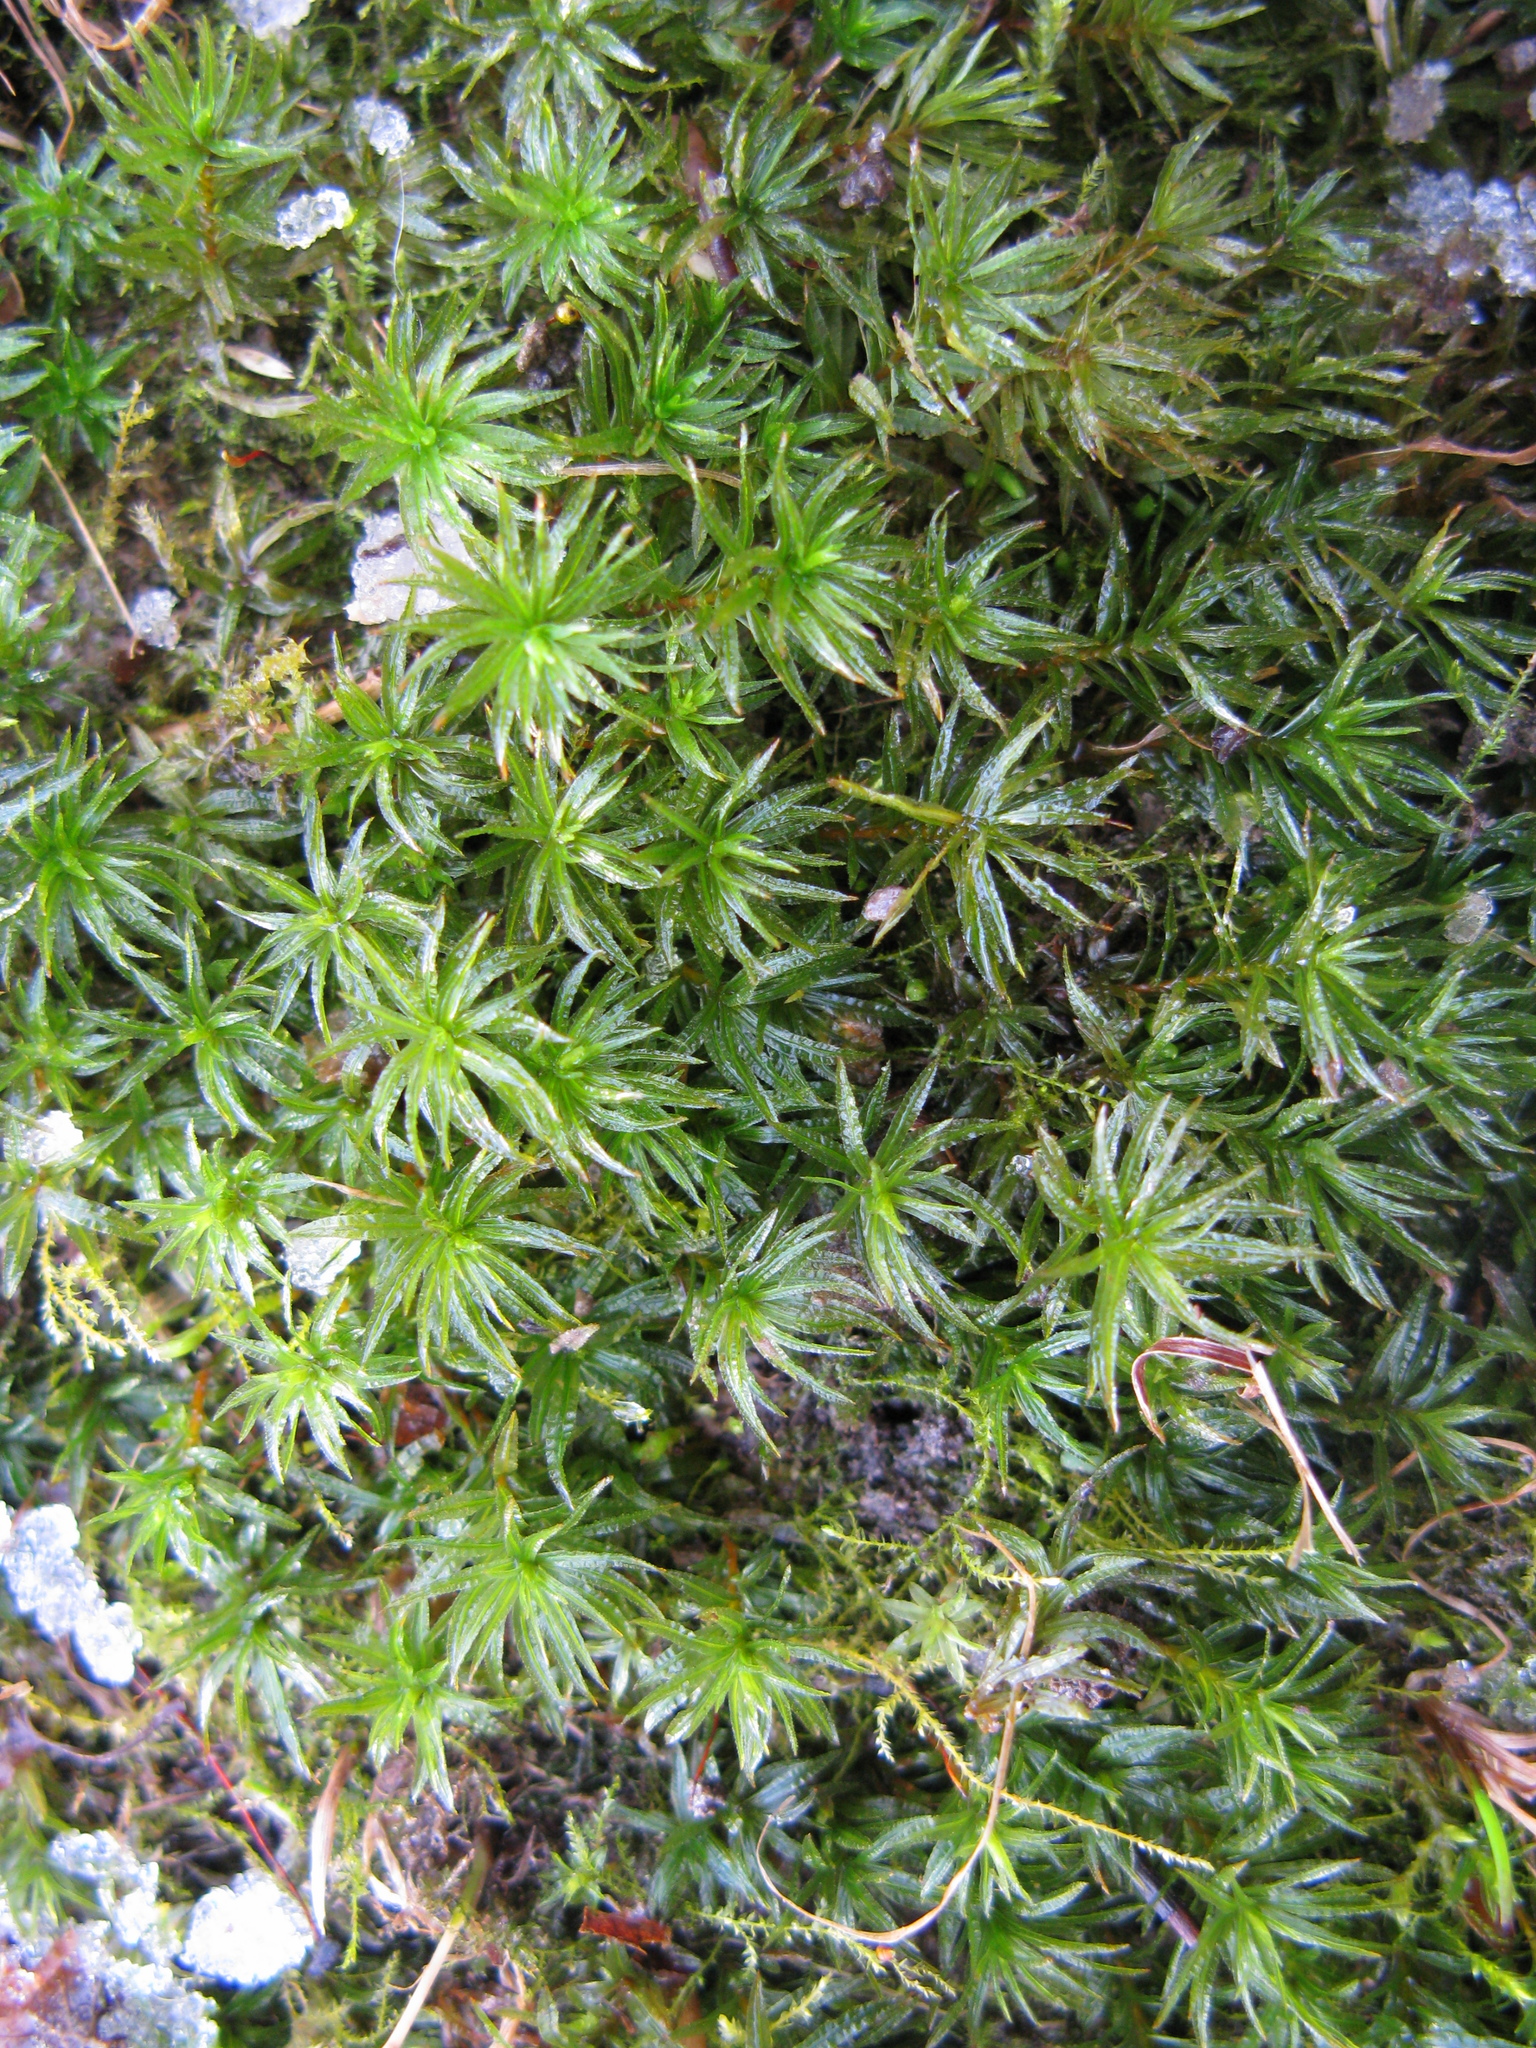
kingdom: Plantae
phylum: Bryophyta
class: Polytrichopsida
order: Polytrichales
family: Polytrichaceae
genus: Atrichum
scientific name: Atrichum undulatum
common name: Common smoothcap
